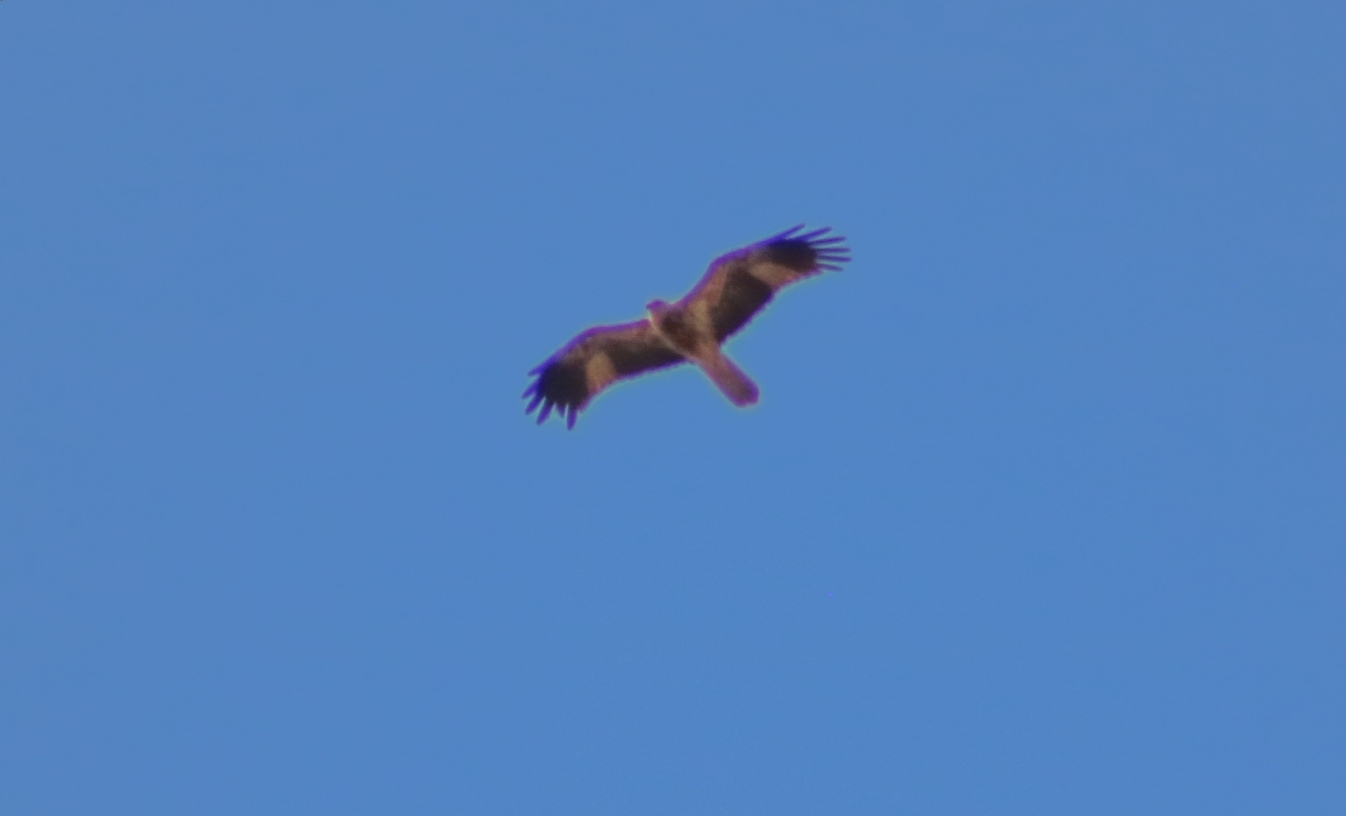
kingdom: Animalia
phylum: Chordata
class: Aves
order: Accipitriformes
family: Accipitridae
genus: Haliastur
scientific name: Haliastur sphenurus
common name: Whistling kite
